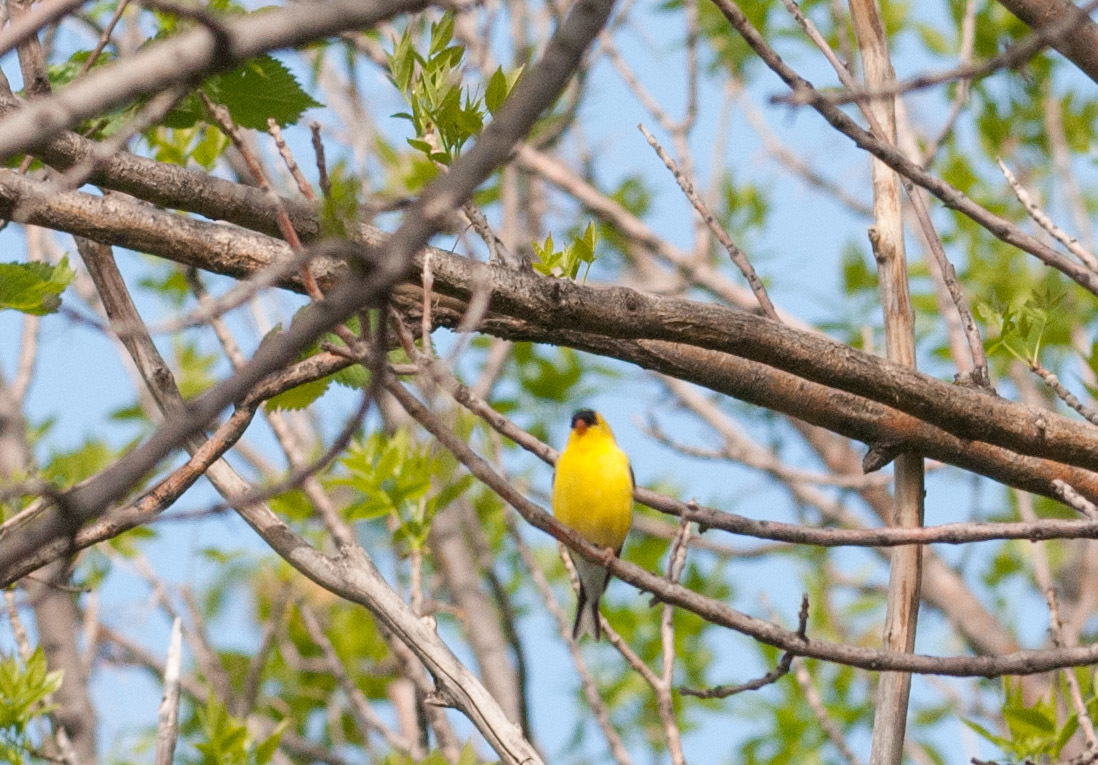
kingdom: Animalia
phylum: Chordata
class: Aves
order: Passeriformes
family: Fringillidae
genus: Spinus
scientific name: Spinus tristis
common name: American goldfinch
